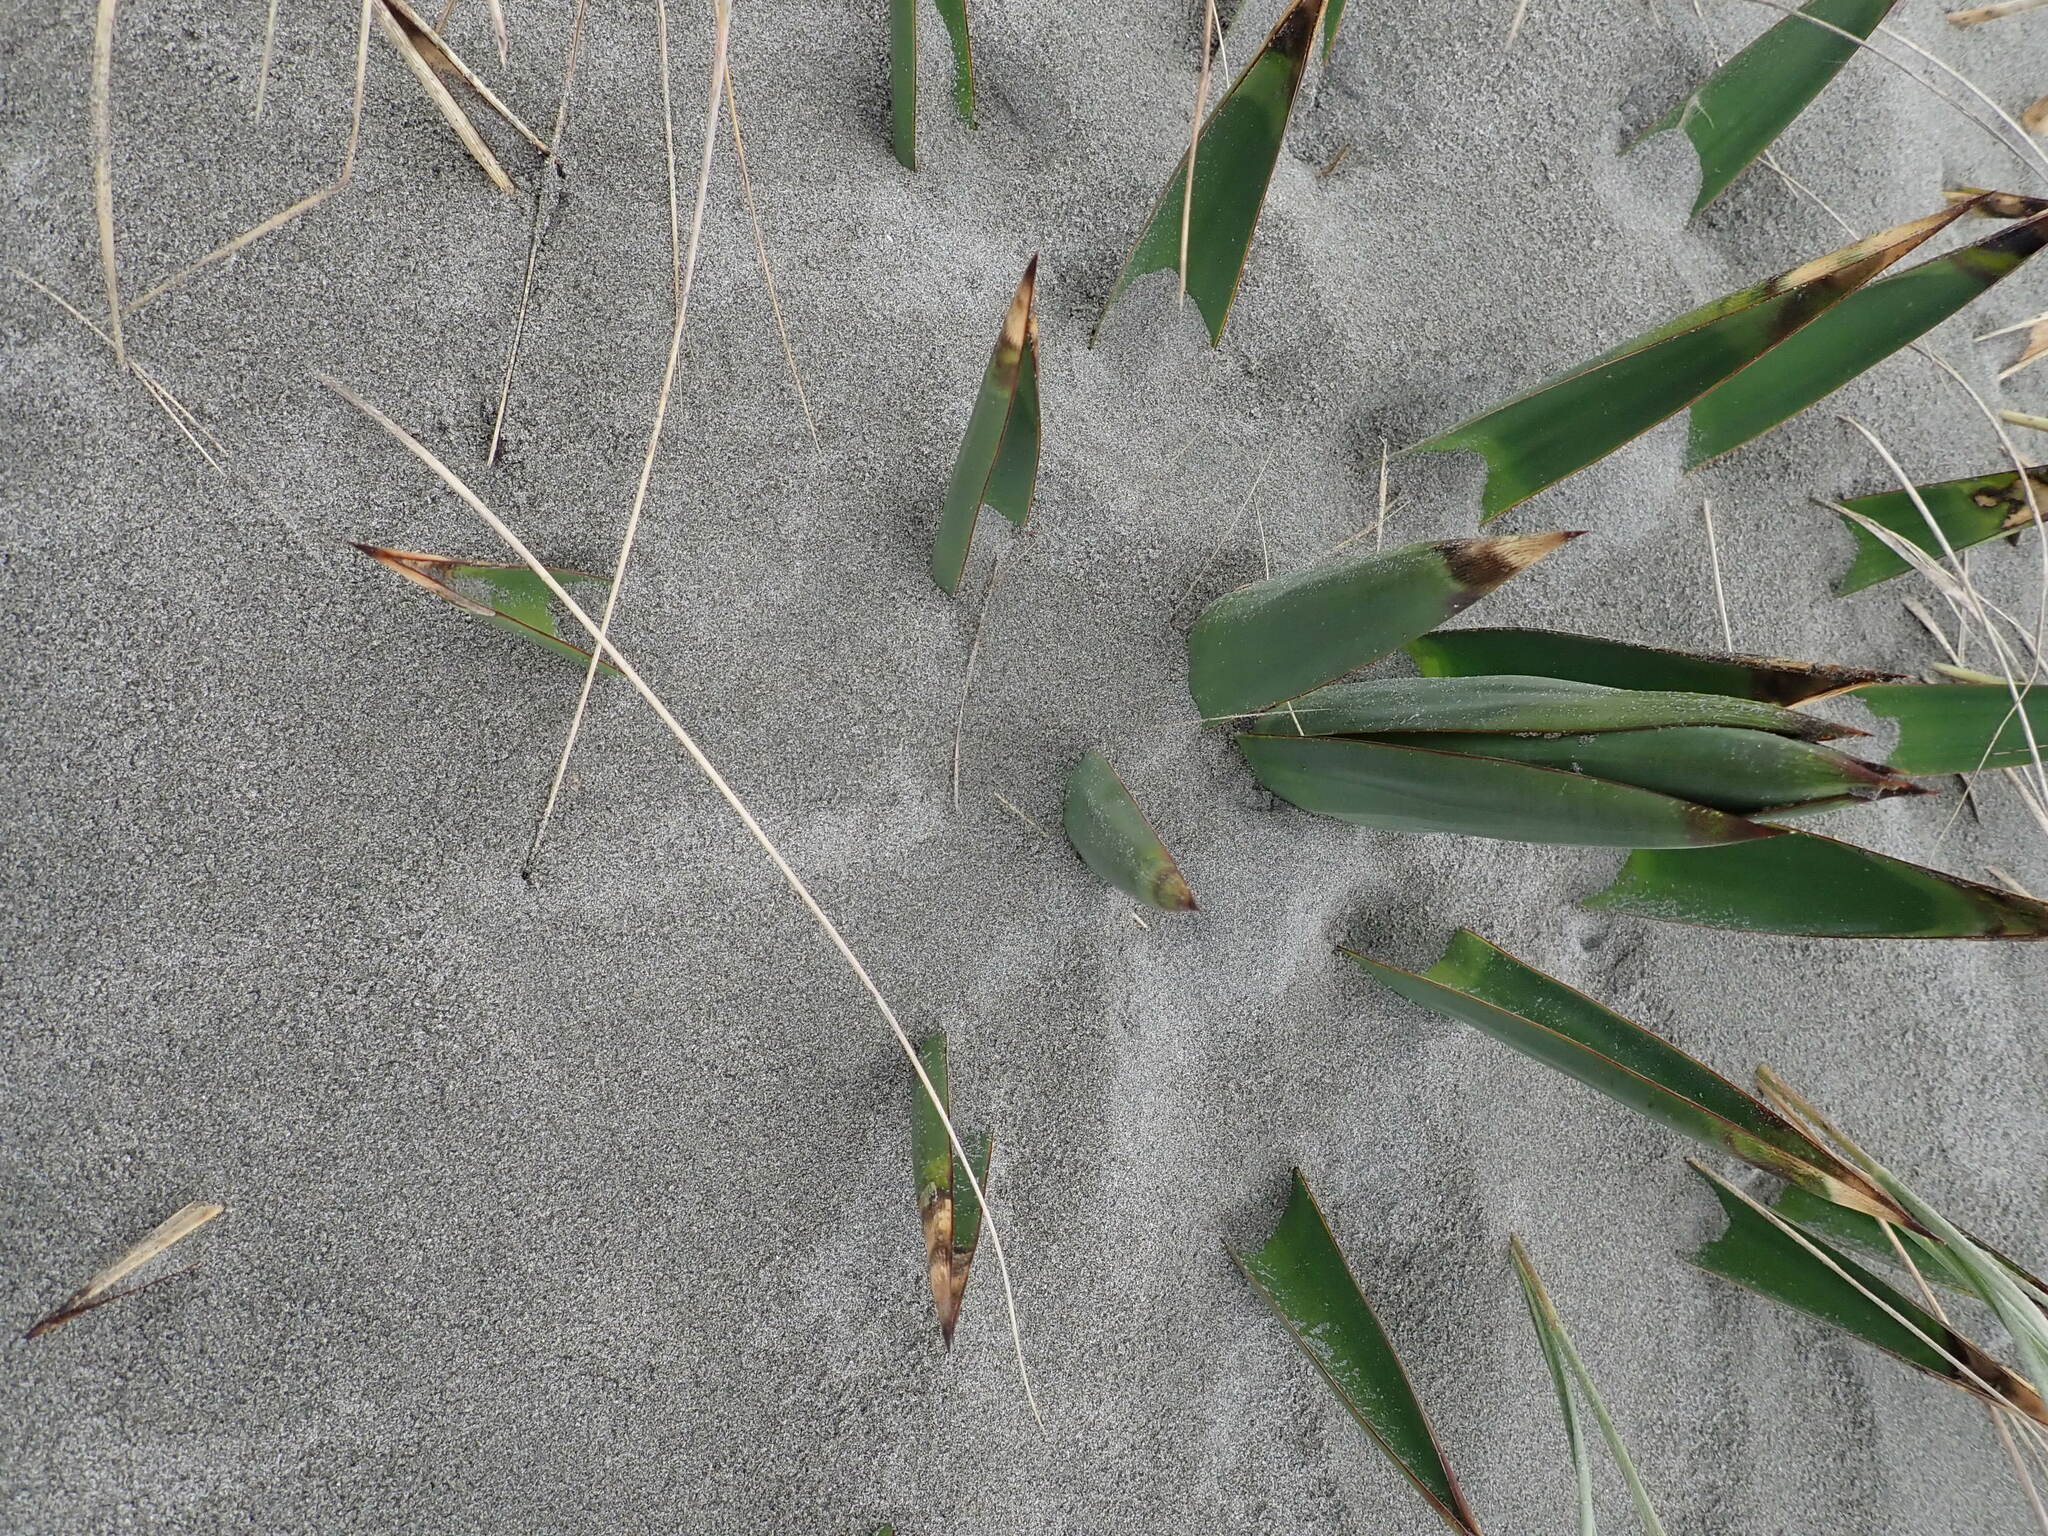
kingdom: Plantae
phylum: Tracheophyta
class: Liliopsida
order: Asparagales
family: Asparagaceae
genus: Yucca
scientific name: Yucca gloriosa
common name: Spanish-dagger
